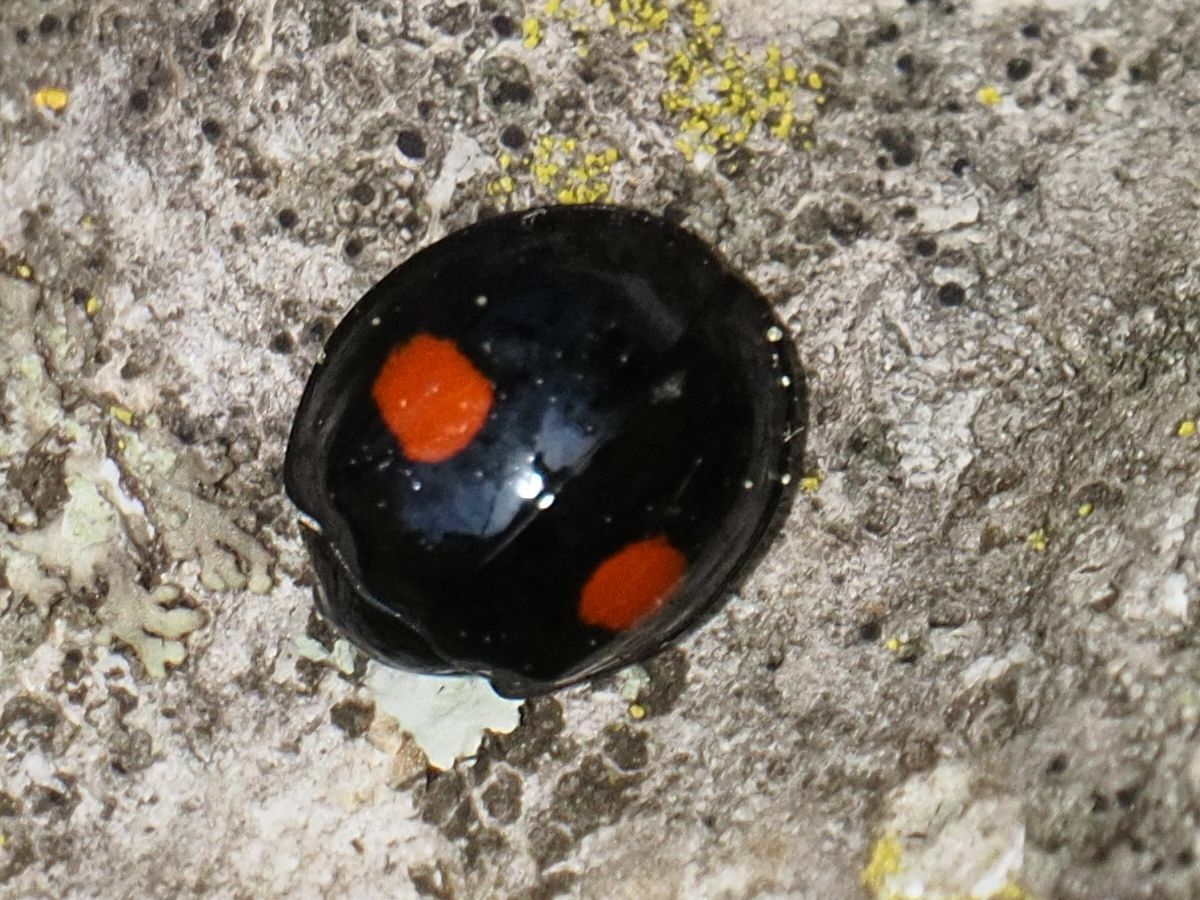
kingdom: Animalia
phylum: Arthropoda
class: Insecta
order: Coleoptera
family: Coccinellidae
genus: Chilocorus
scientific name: Chilocorus renipustulatus
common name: Kidney-spot ladybird
